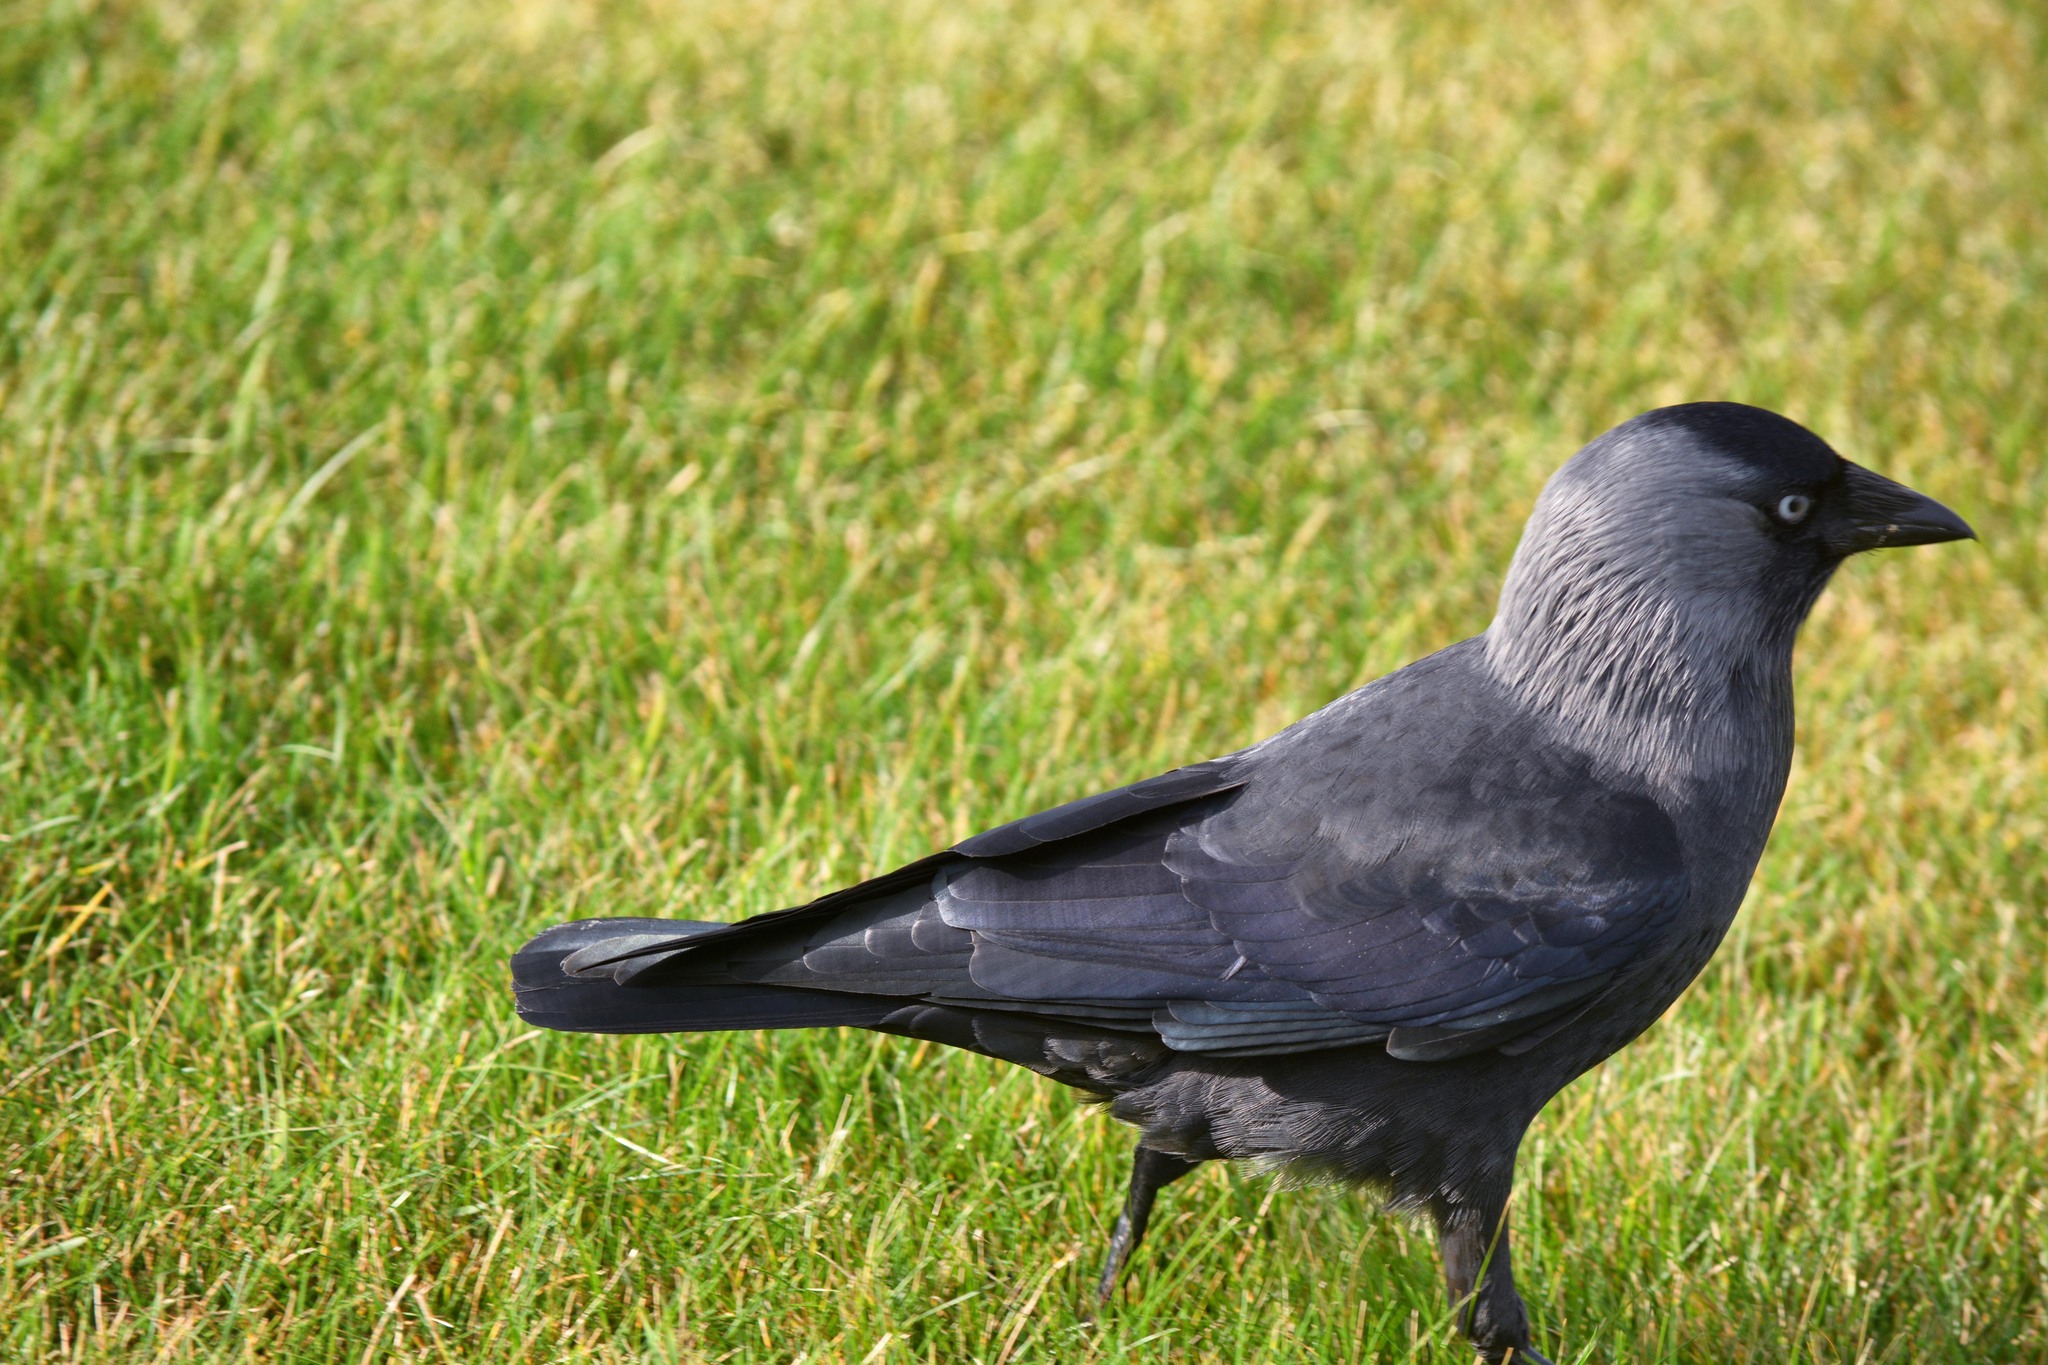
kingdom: Animalia
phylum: Chordata
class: Aves
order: Passeriformes
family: Corvidae
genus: Coloeus
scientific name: Coloeus monedula
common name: Western jackdaw
